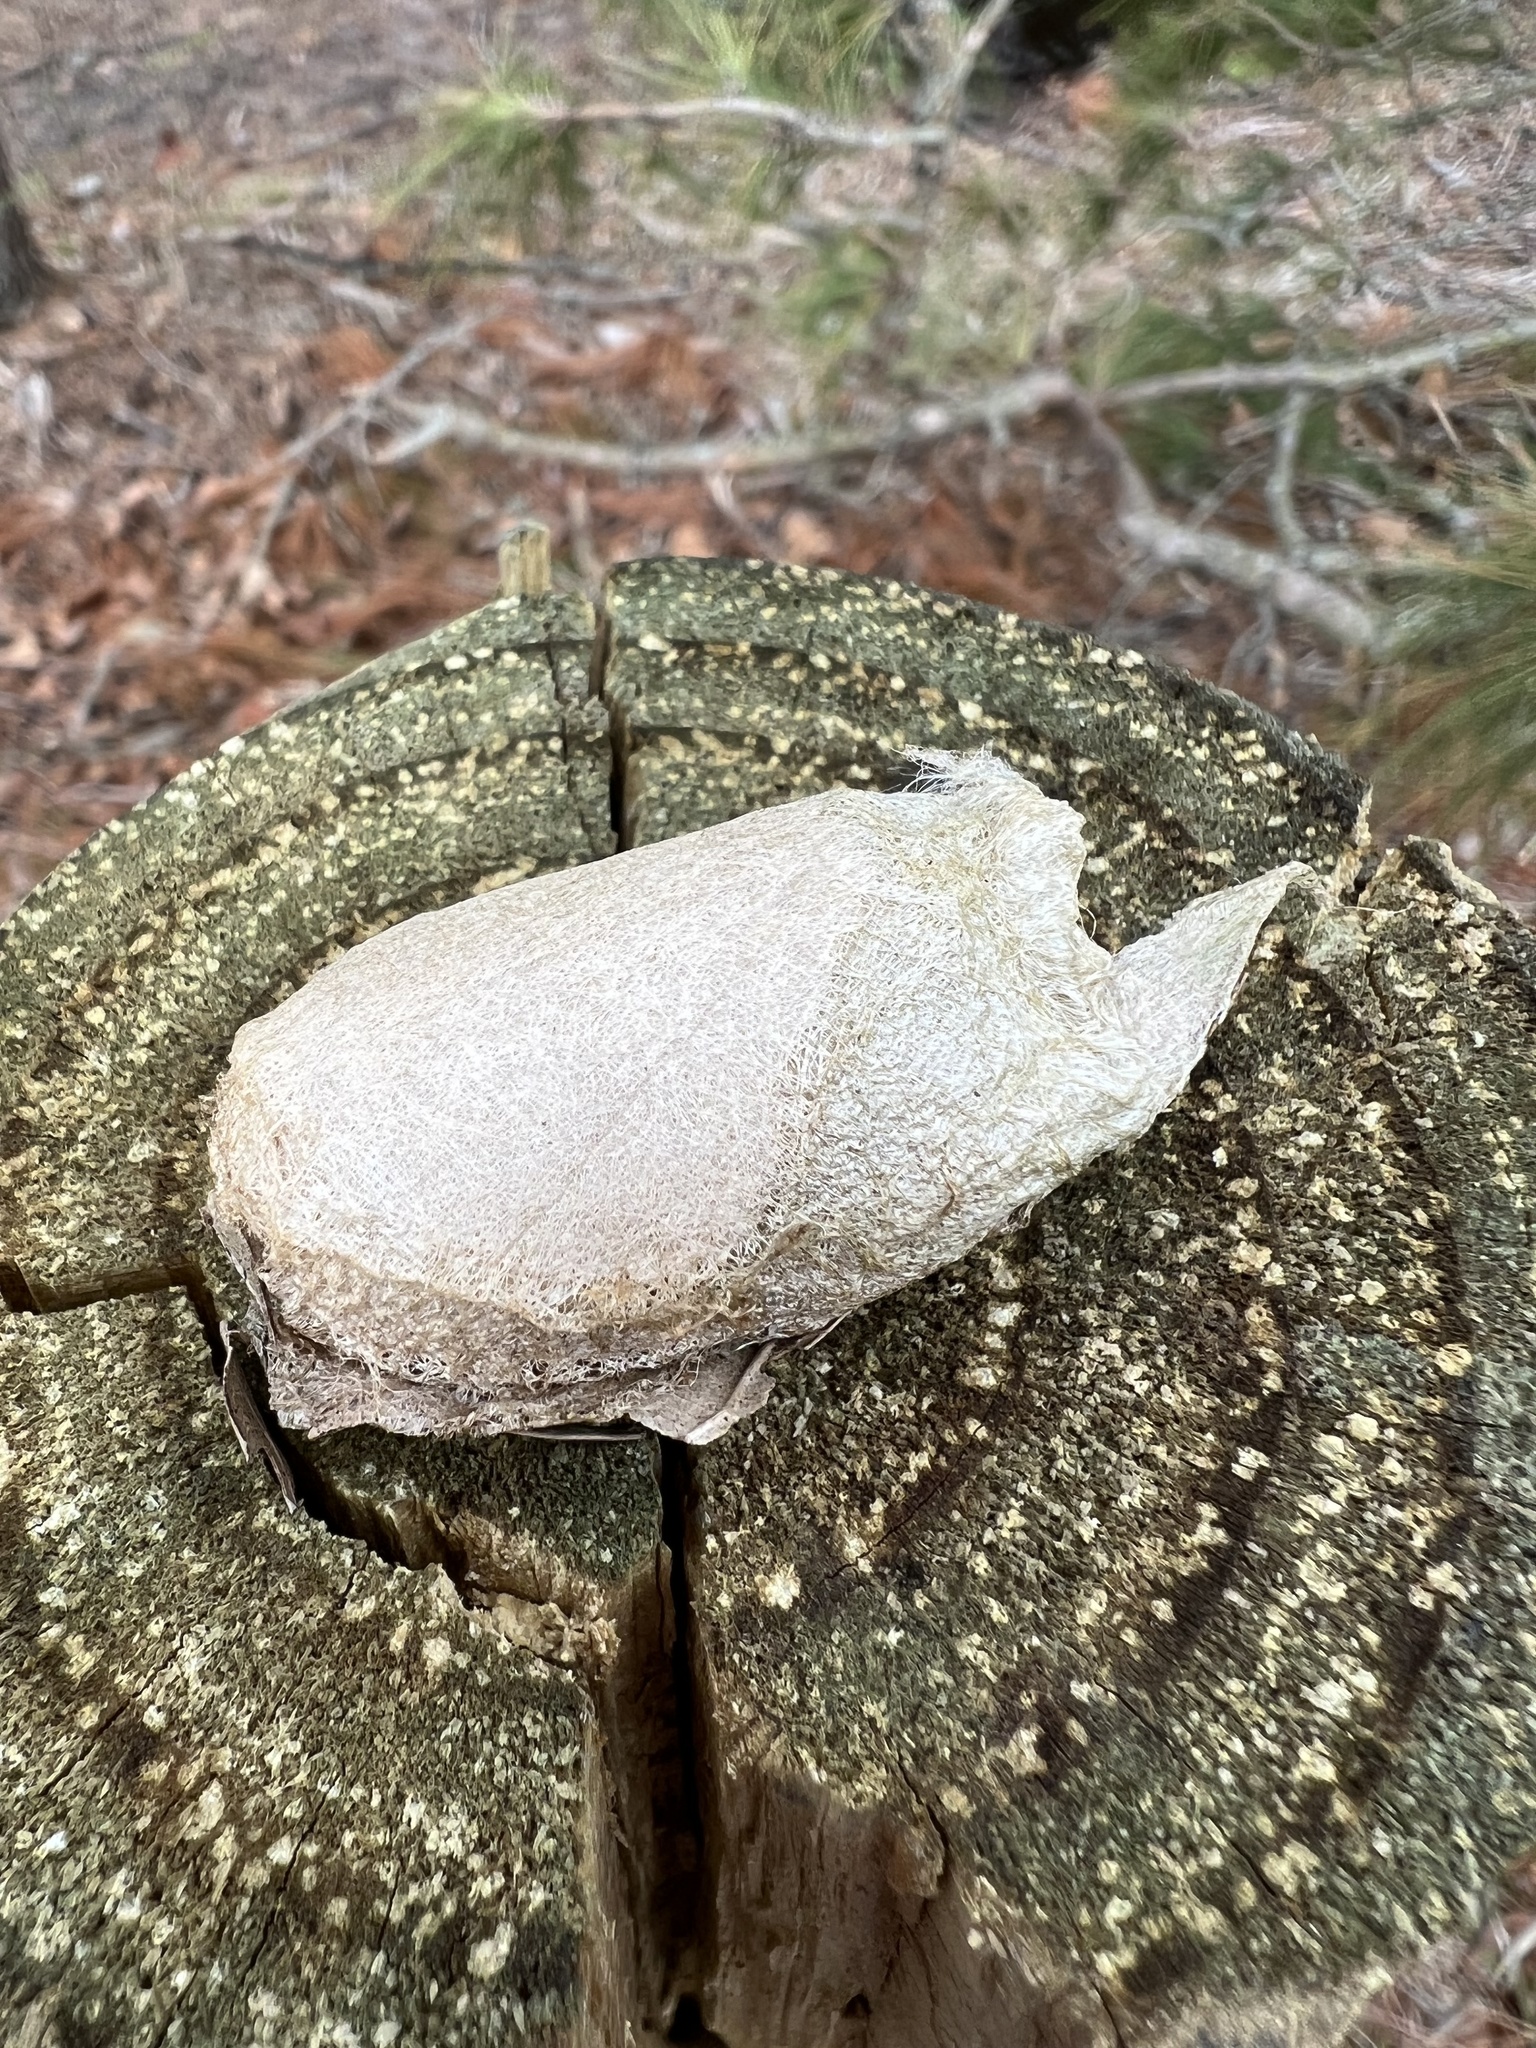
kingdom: Animalia
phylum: Arthropoda
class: Insecta
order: Lepidoptera
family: Saturniidae
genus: Antheraea
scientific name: Antheraea polyphemus
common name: Polyphemus moth
